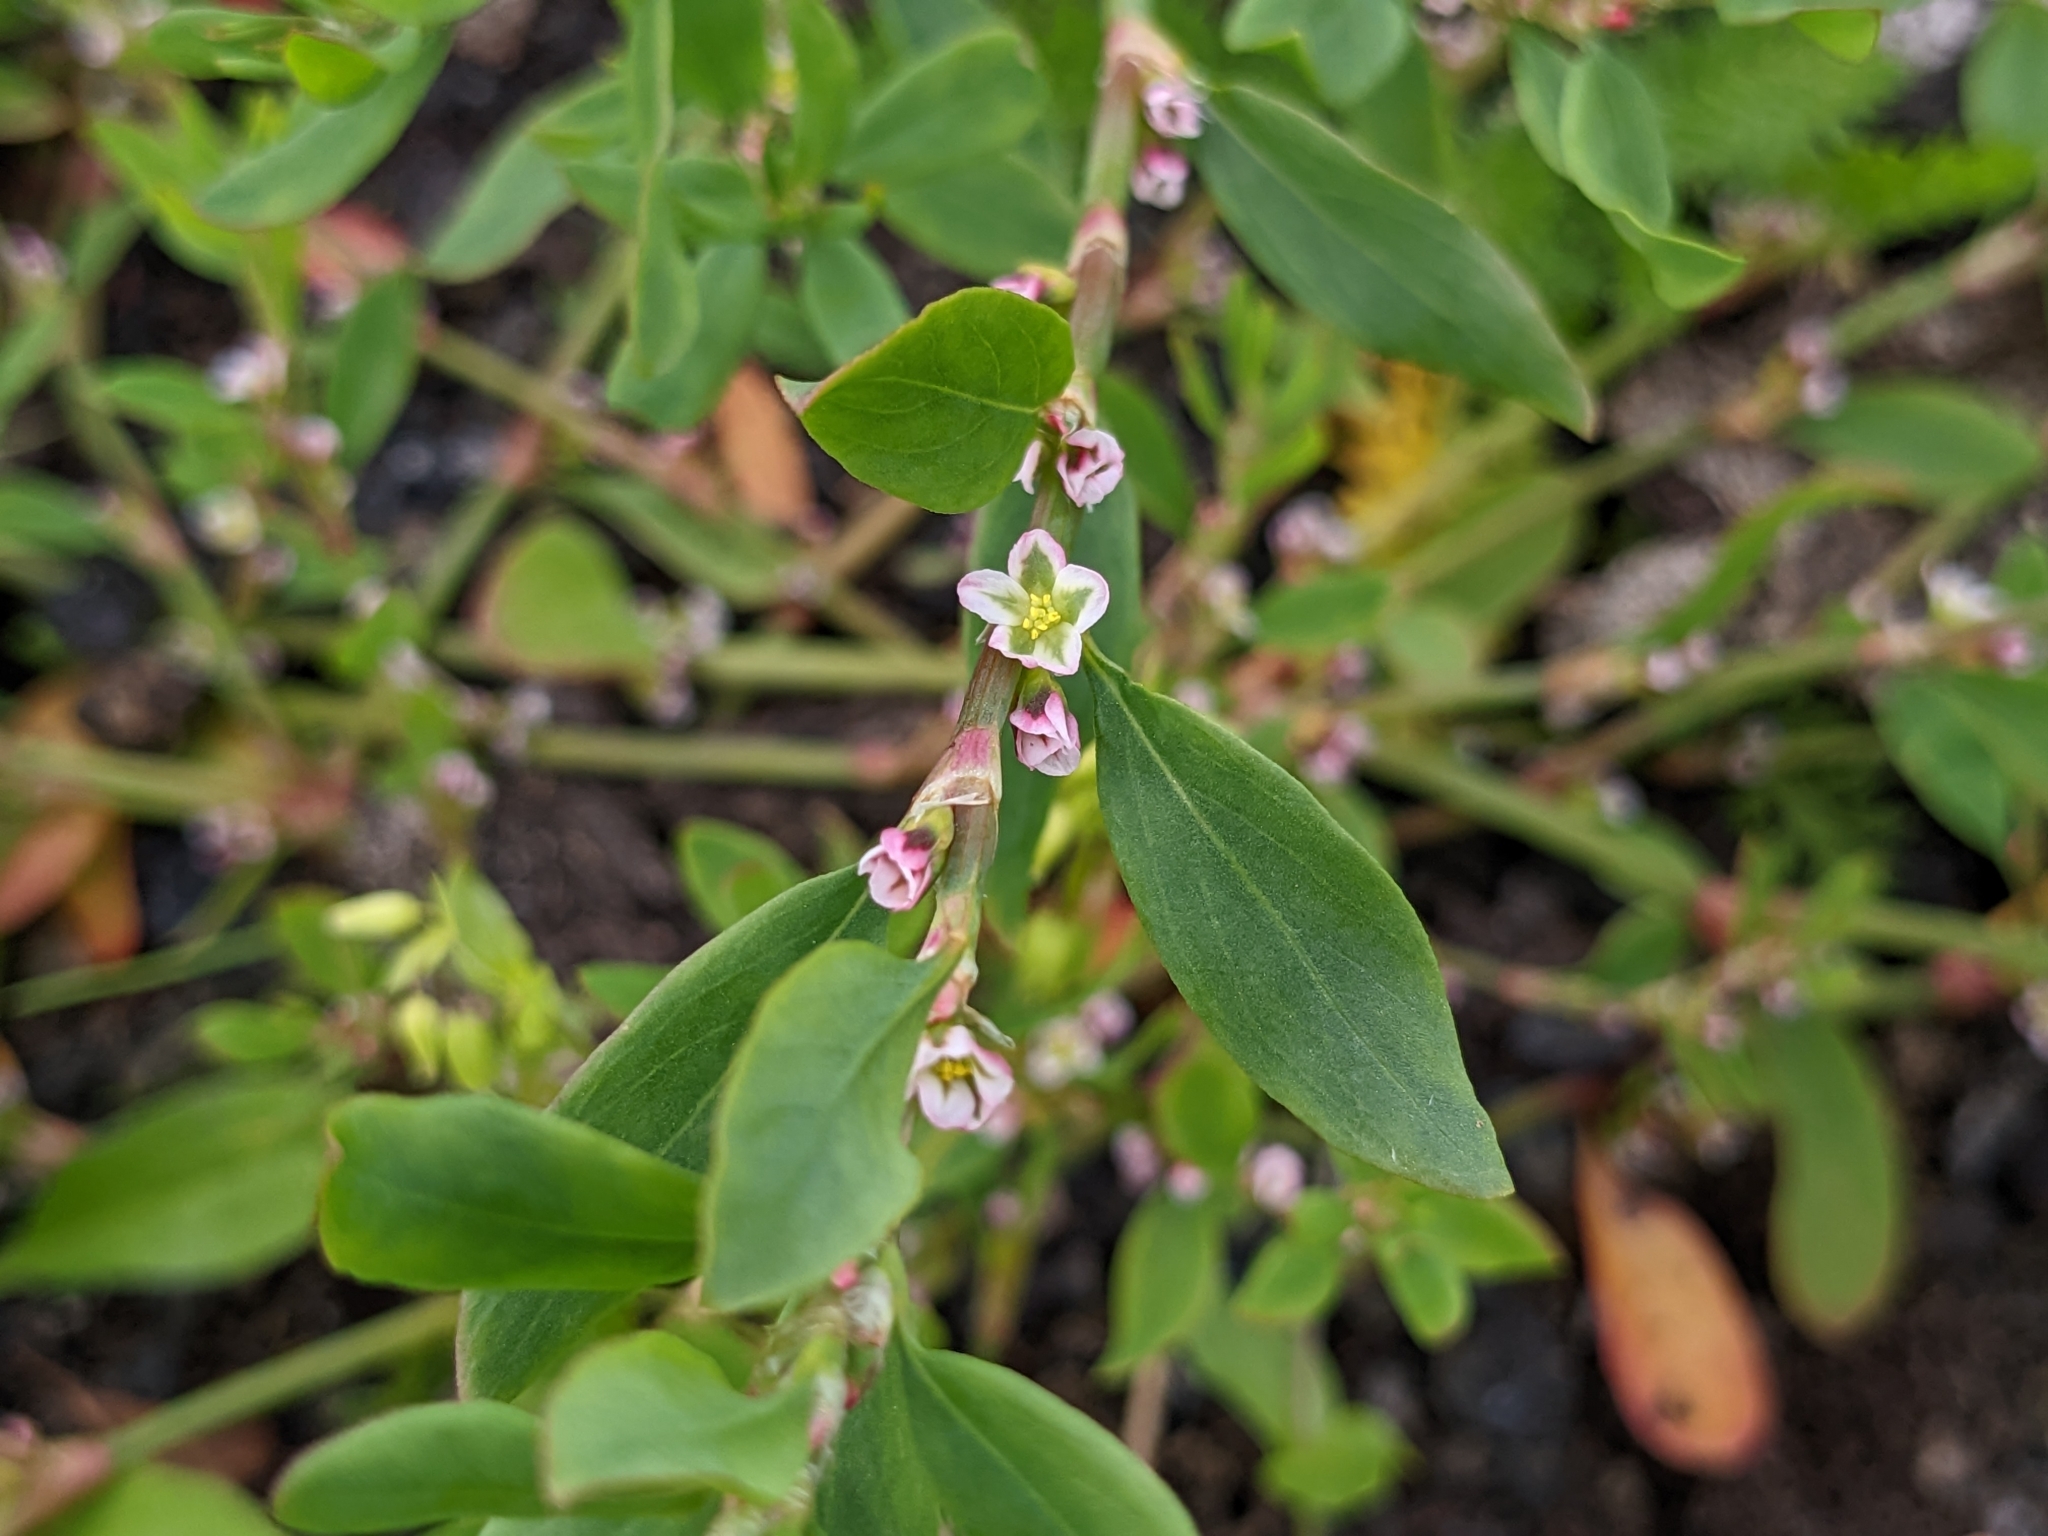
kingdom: Plantae
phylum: Tracheophyta
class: Magnoliopsida
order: Caryophyllales
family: Polygonaceae
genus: Polygonum
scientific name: Polygonum aviculare
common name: Prostrate knotweed
